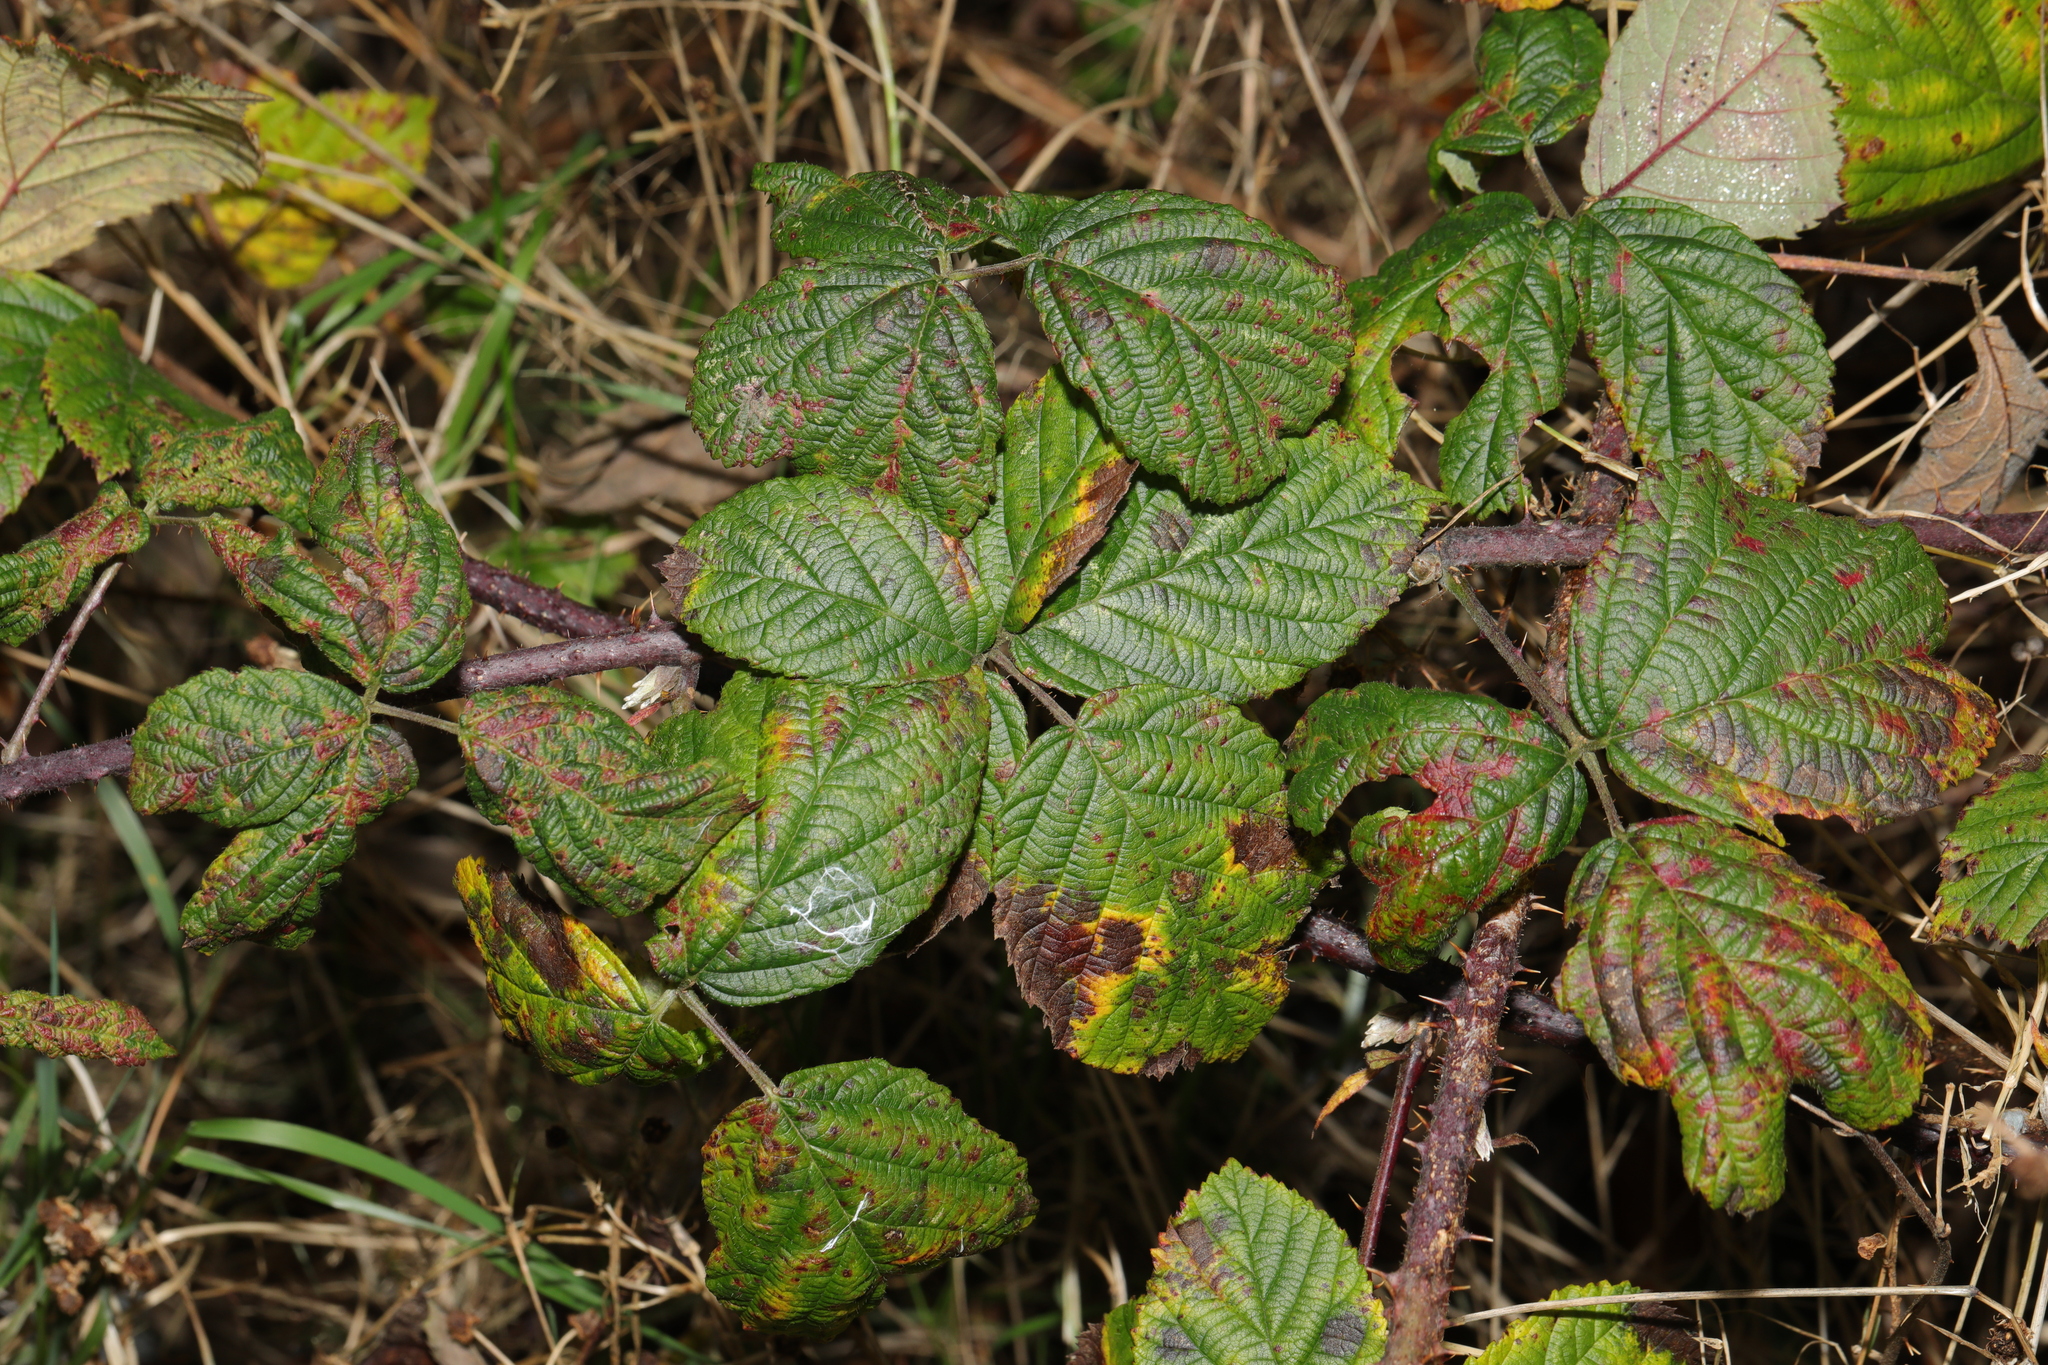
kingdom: Plantae
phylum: Tracheophyta
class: Magnoliopsida
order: Rosales
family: Rosaceae
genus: Rubus
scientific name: Rubus horrefactus
